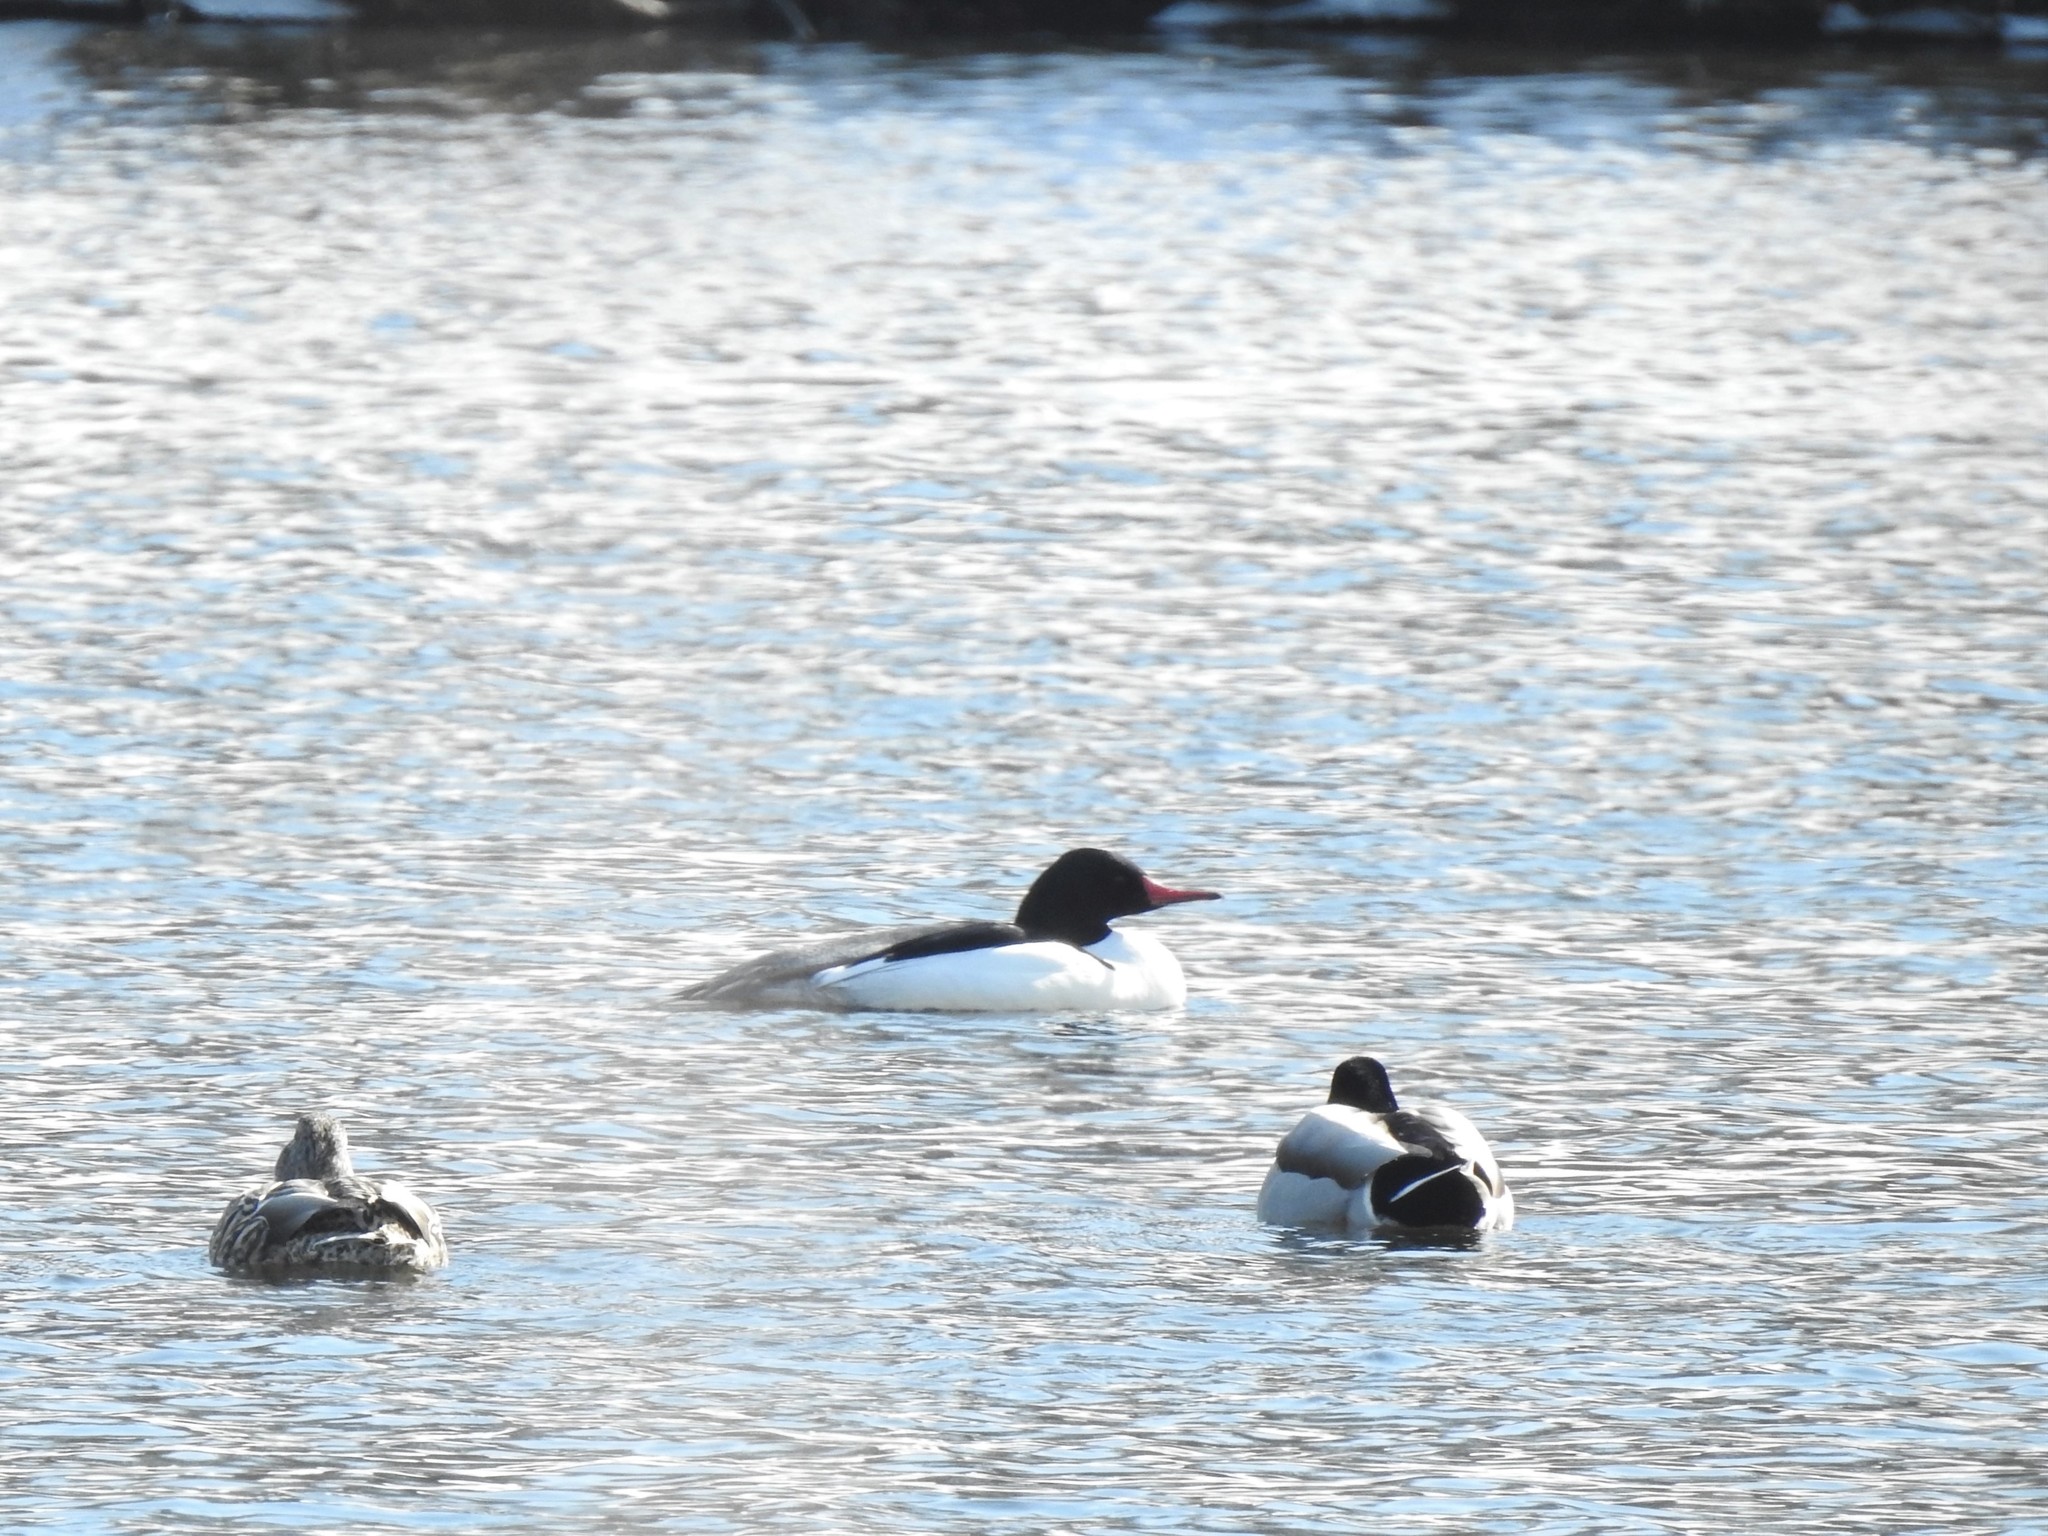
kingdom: Animalia
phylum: Chordata
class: Aves
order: Anseriformes
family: Anatidae
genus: Mergus
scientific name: Mergus merganser
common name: Common merganser
